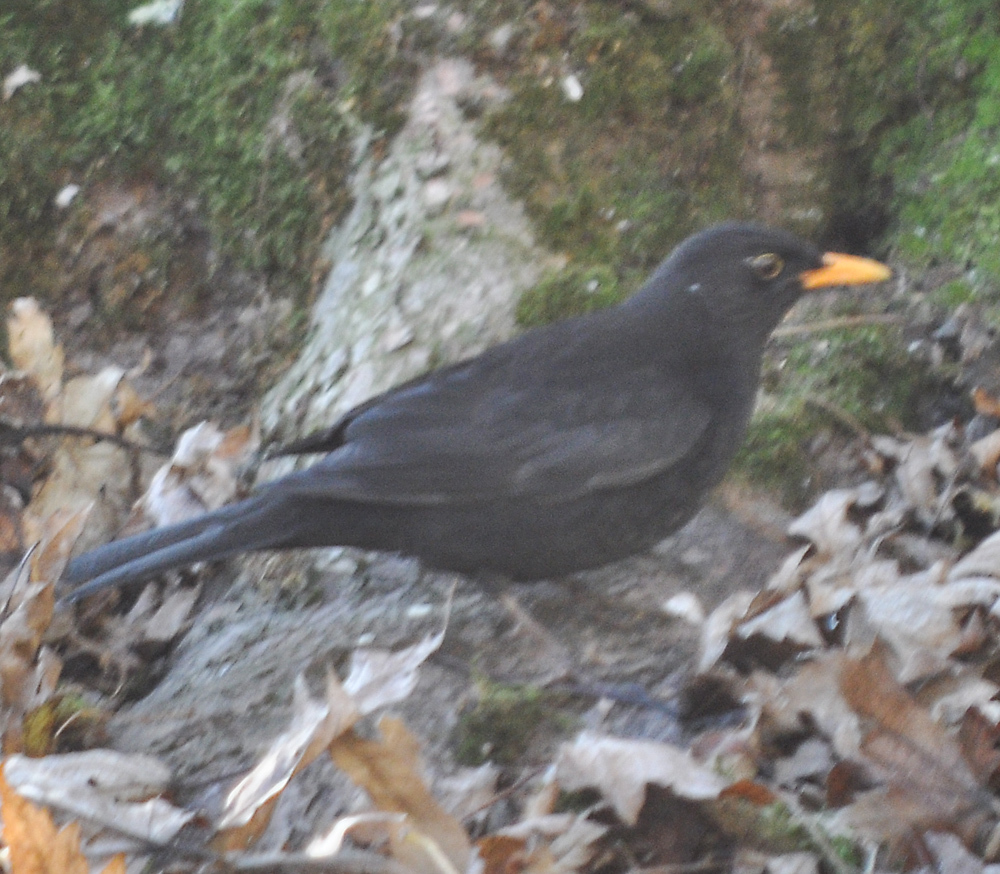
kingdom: Animalia
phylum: Chordata
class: Aves
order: Passeriformes
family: Turdidae
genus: Turdus
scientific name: Turdus merula
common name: Common blackbird
